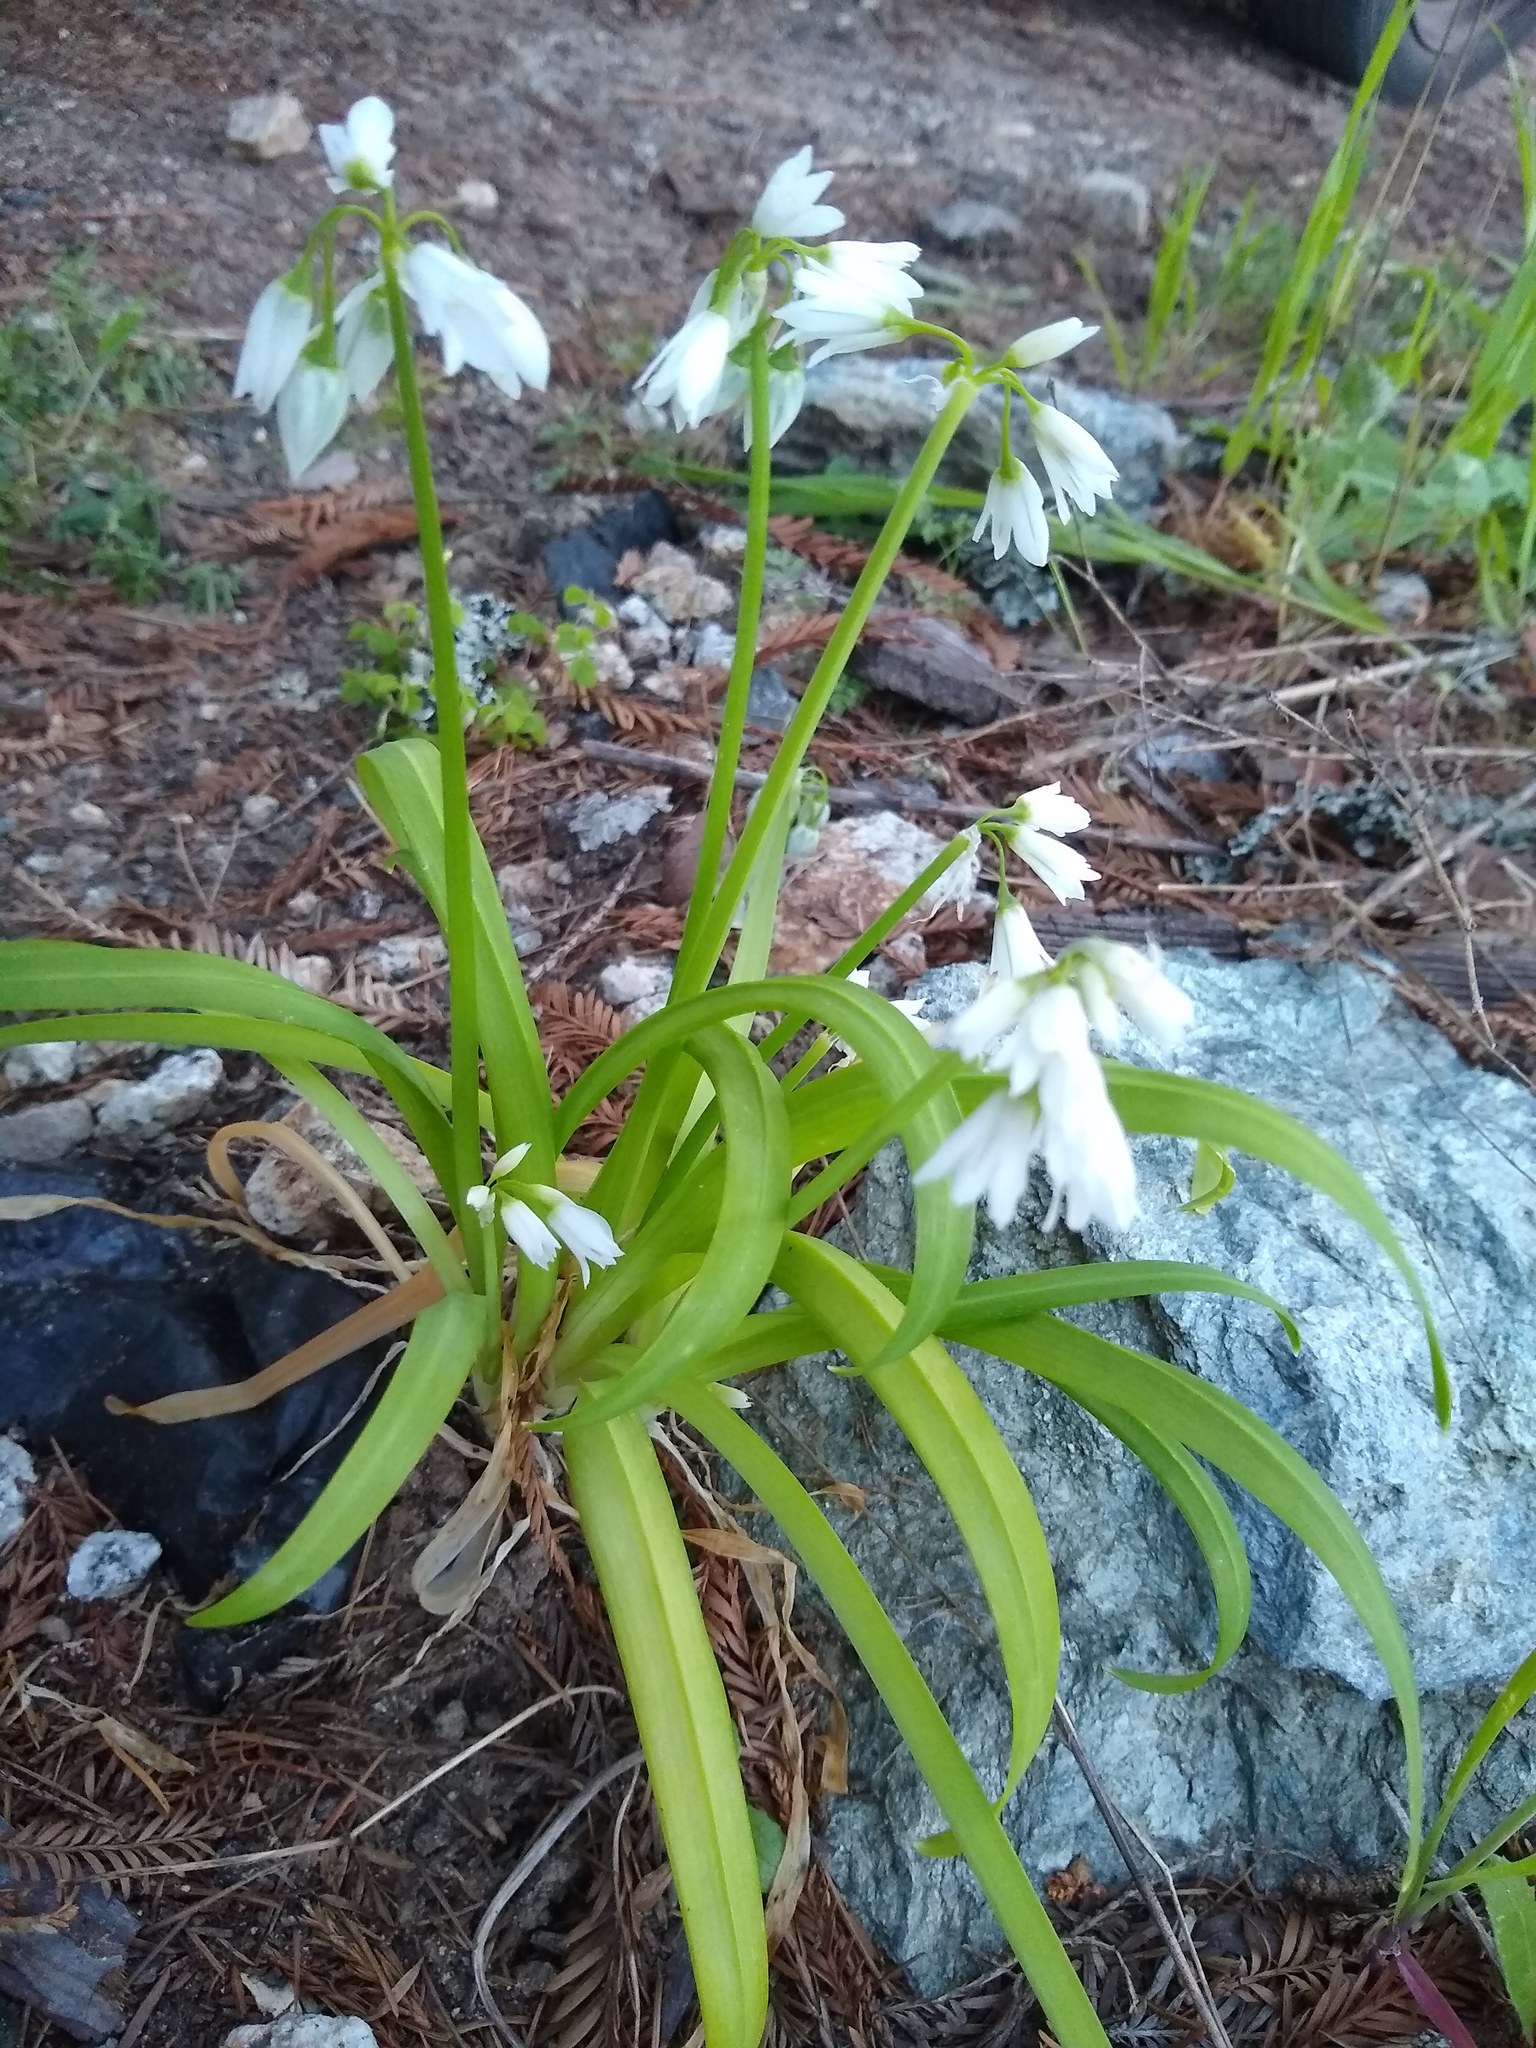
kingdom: Plantae
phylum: Tracheophyta
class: Liliopsida
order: Asparagales
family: Amaryllidaceae
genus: Allium
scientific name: Allium triquetrum
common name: Three-cornered garlic
